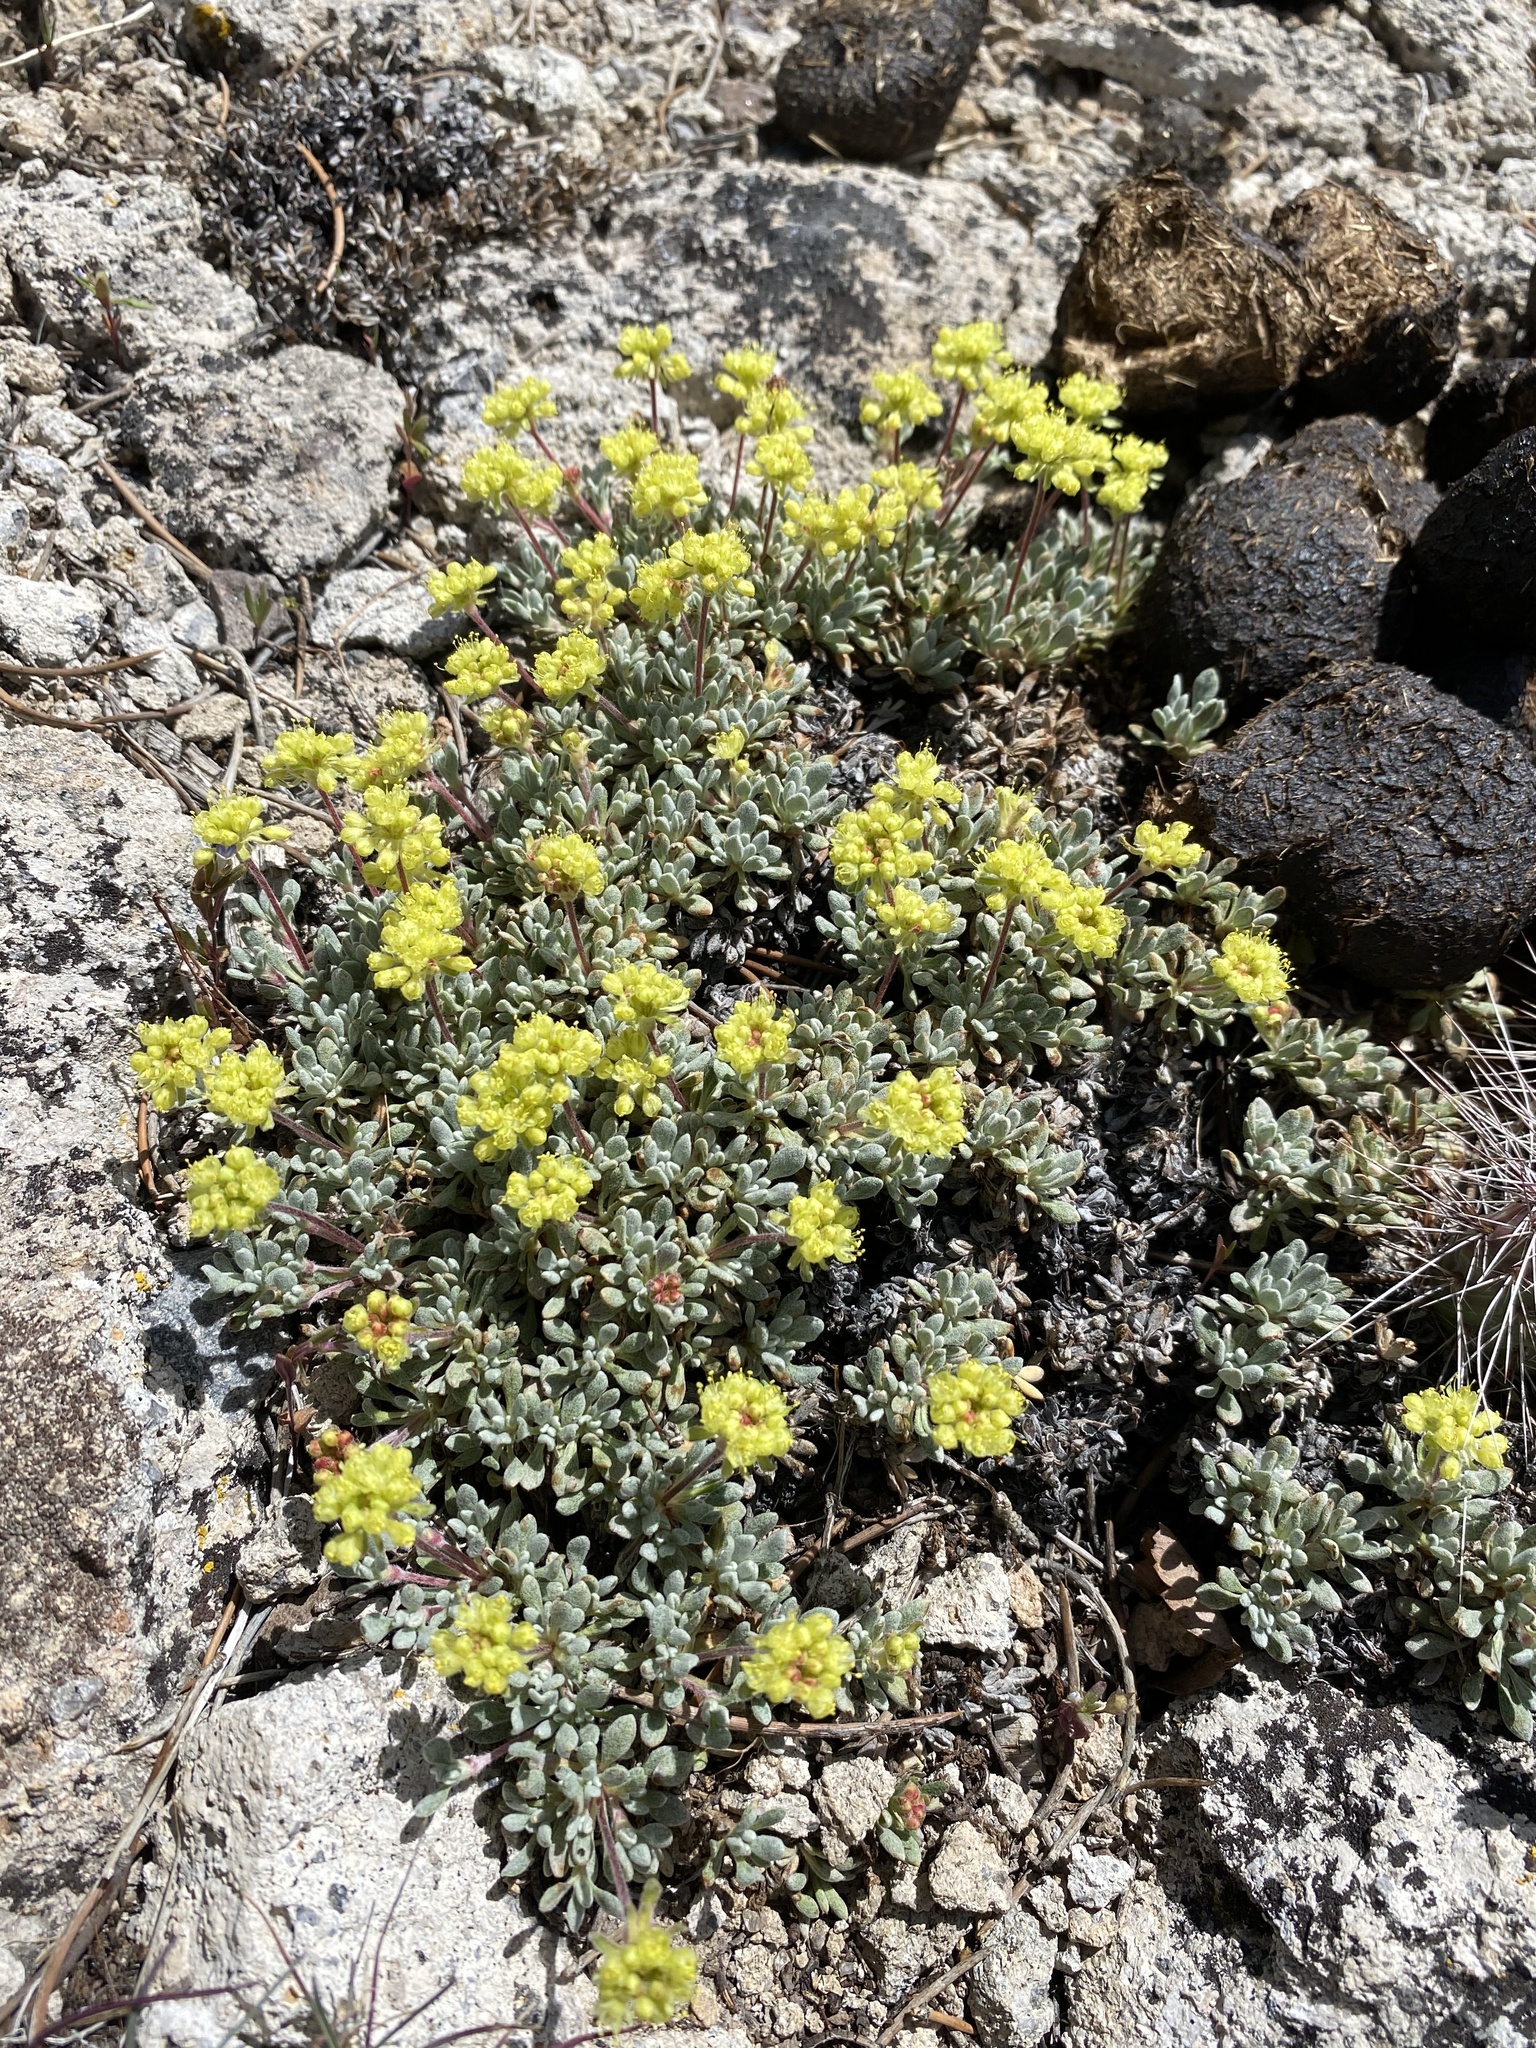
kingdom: Plantae
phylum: Tracheophyta
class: Magnoliopsida
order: Caryophyllales
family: Polygonaceae
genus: Eriogonum
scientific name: Eriogonum caespitosum
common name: Matted wild buckwheat
